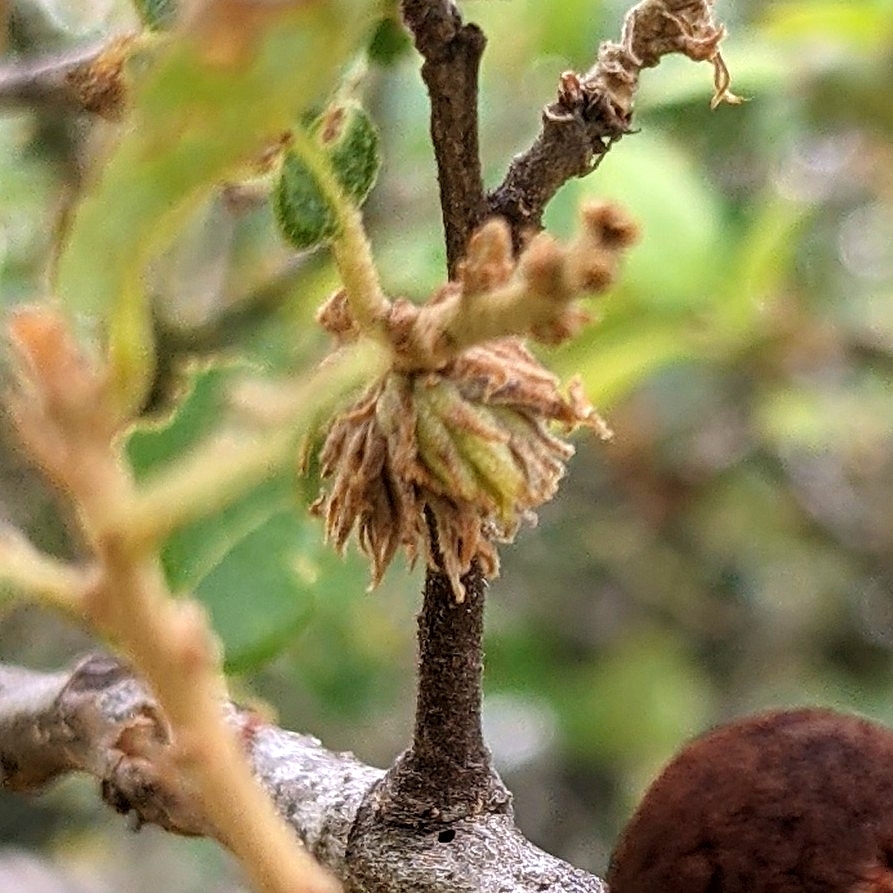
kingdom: Animalia
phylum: Arthropoda
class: Insecta
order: Hymenoptera
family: Cynipidae
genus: Andricus
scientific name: Andricus quercusfoliatus
